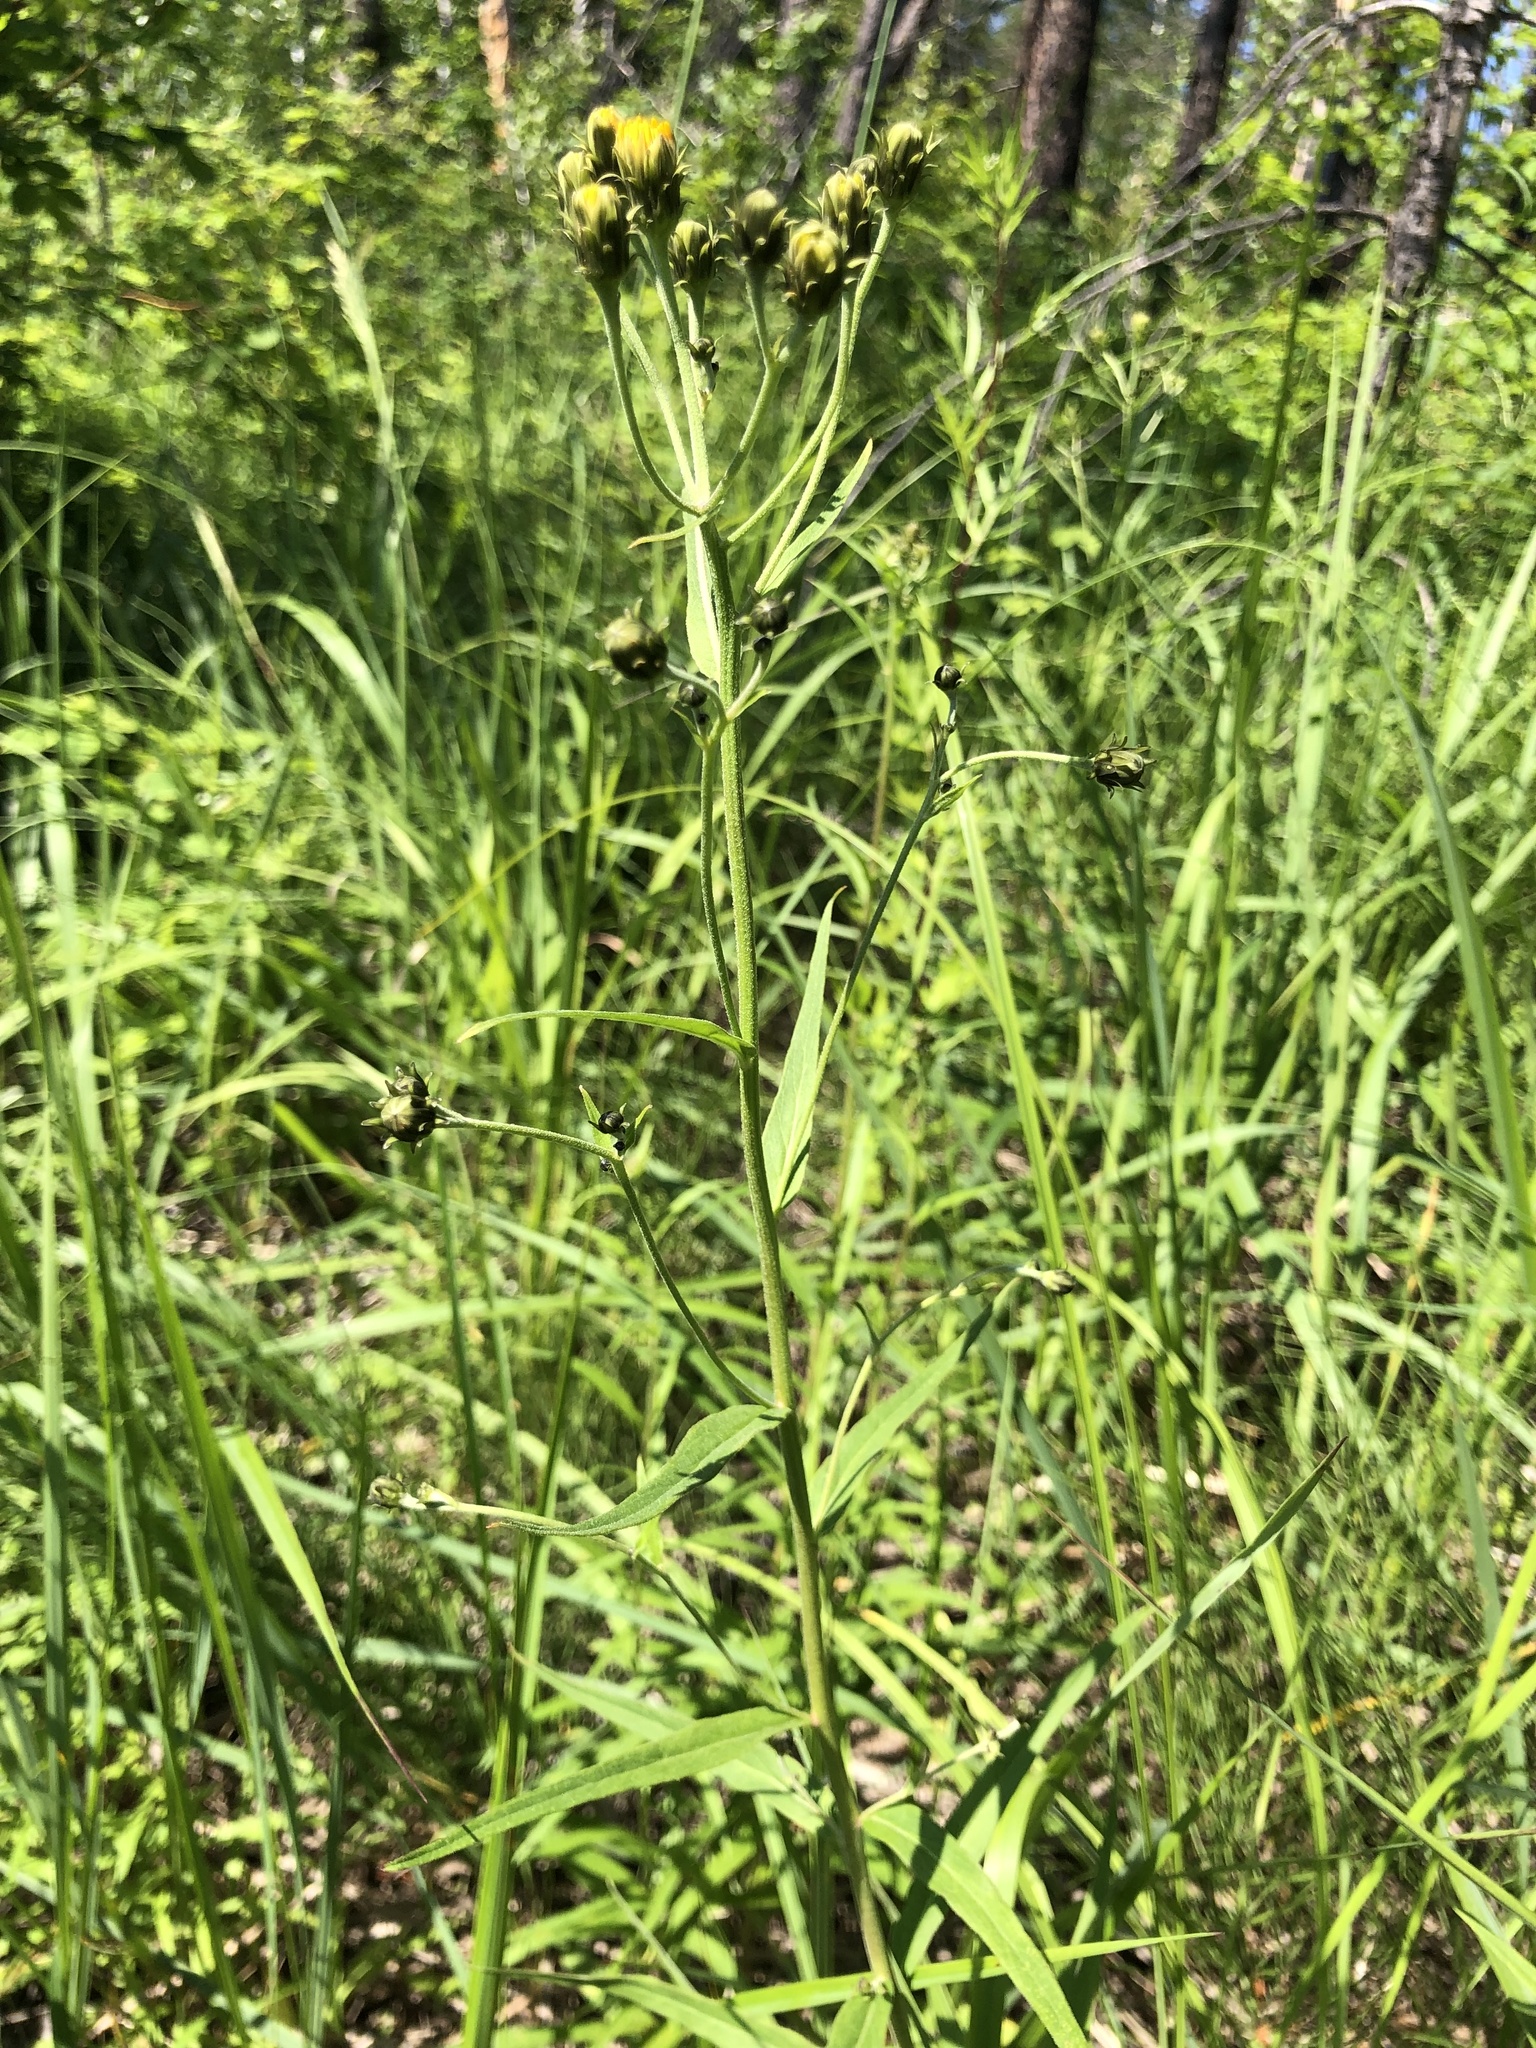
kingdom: Plantae
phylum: Tracheophyta
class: Magnoliopsida
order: Asterales
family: Asteraceae
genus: Hieracium
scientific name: Hieracium umbellatum
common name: Northern hawkweed
